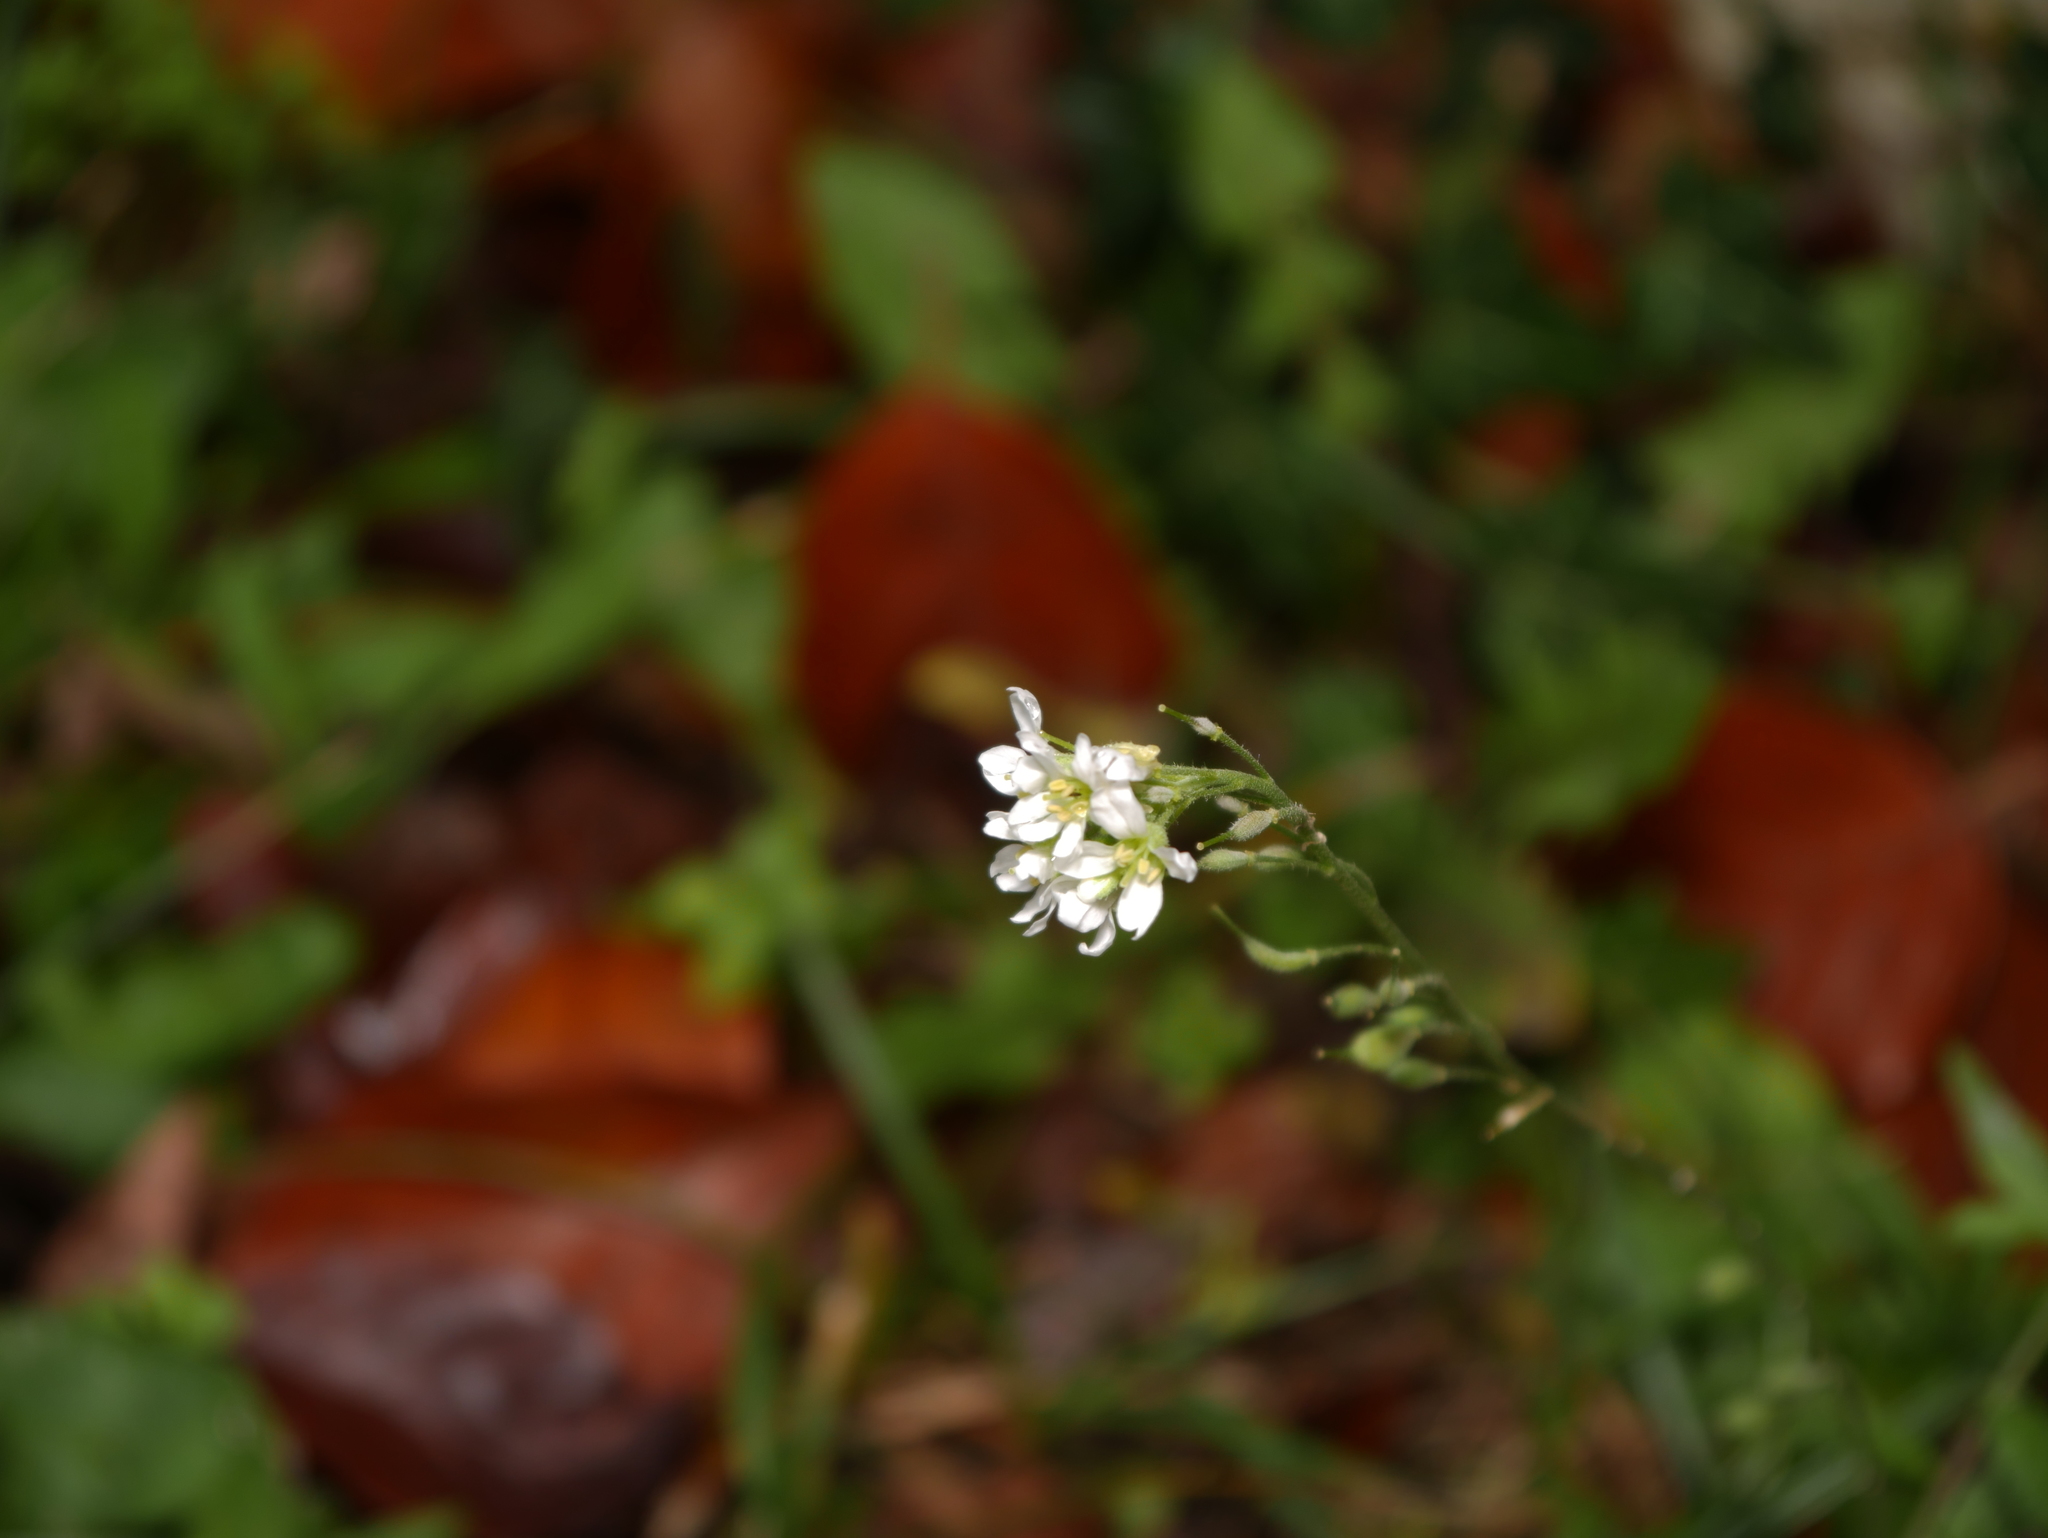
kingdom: Plantae
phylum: Tracheophyta
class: Magnoliopsida
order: Brassicales
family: Brassicaceae
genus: Berteroa
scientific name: Berteroa incana
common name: Hoary alison
